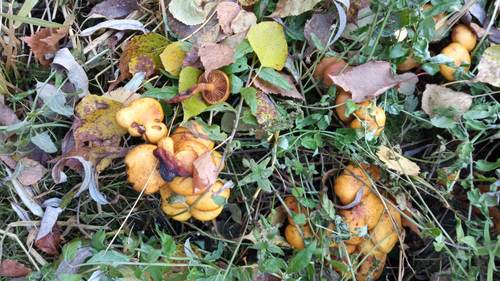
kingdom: Fungi
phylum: Basidiomycota
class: Agaricomycetes
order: Agaricales
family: Strophariaceae
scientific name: Strophariaceae
